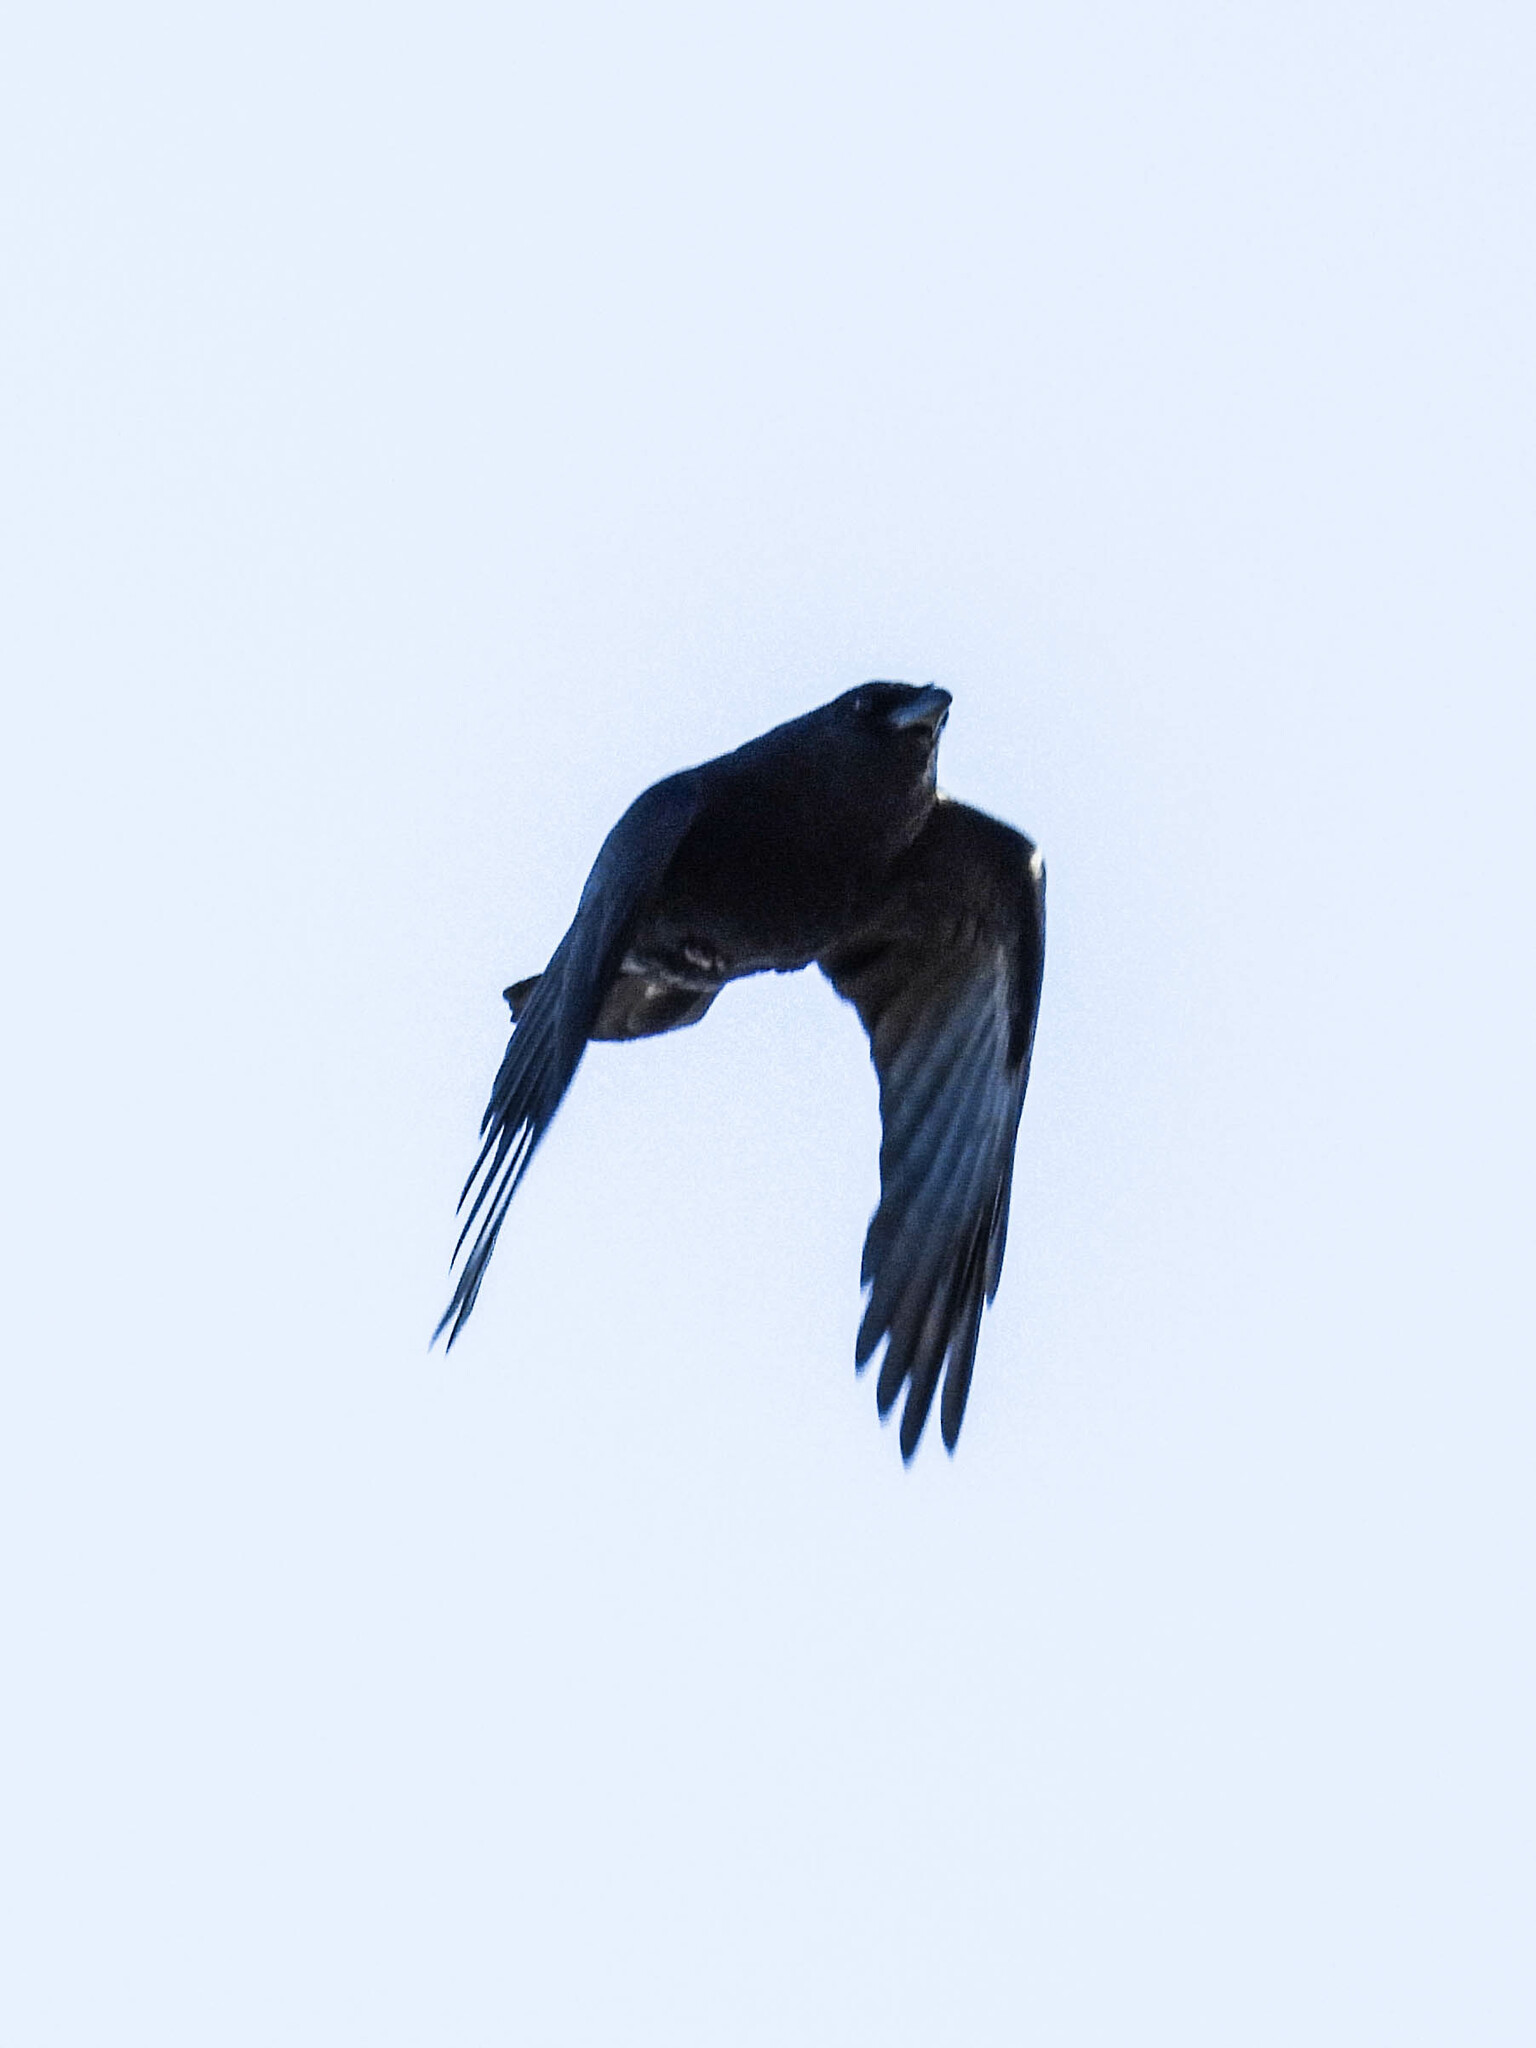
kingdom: Animalia
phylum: Chordata
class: Aves
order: Passeriformes
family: Corvidae
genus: Corvus
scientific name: Corvus brachyrhynchos
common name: American crow
